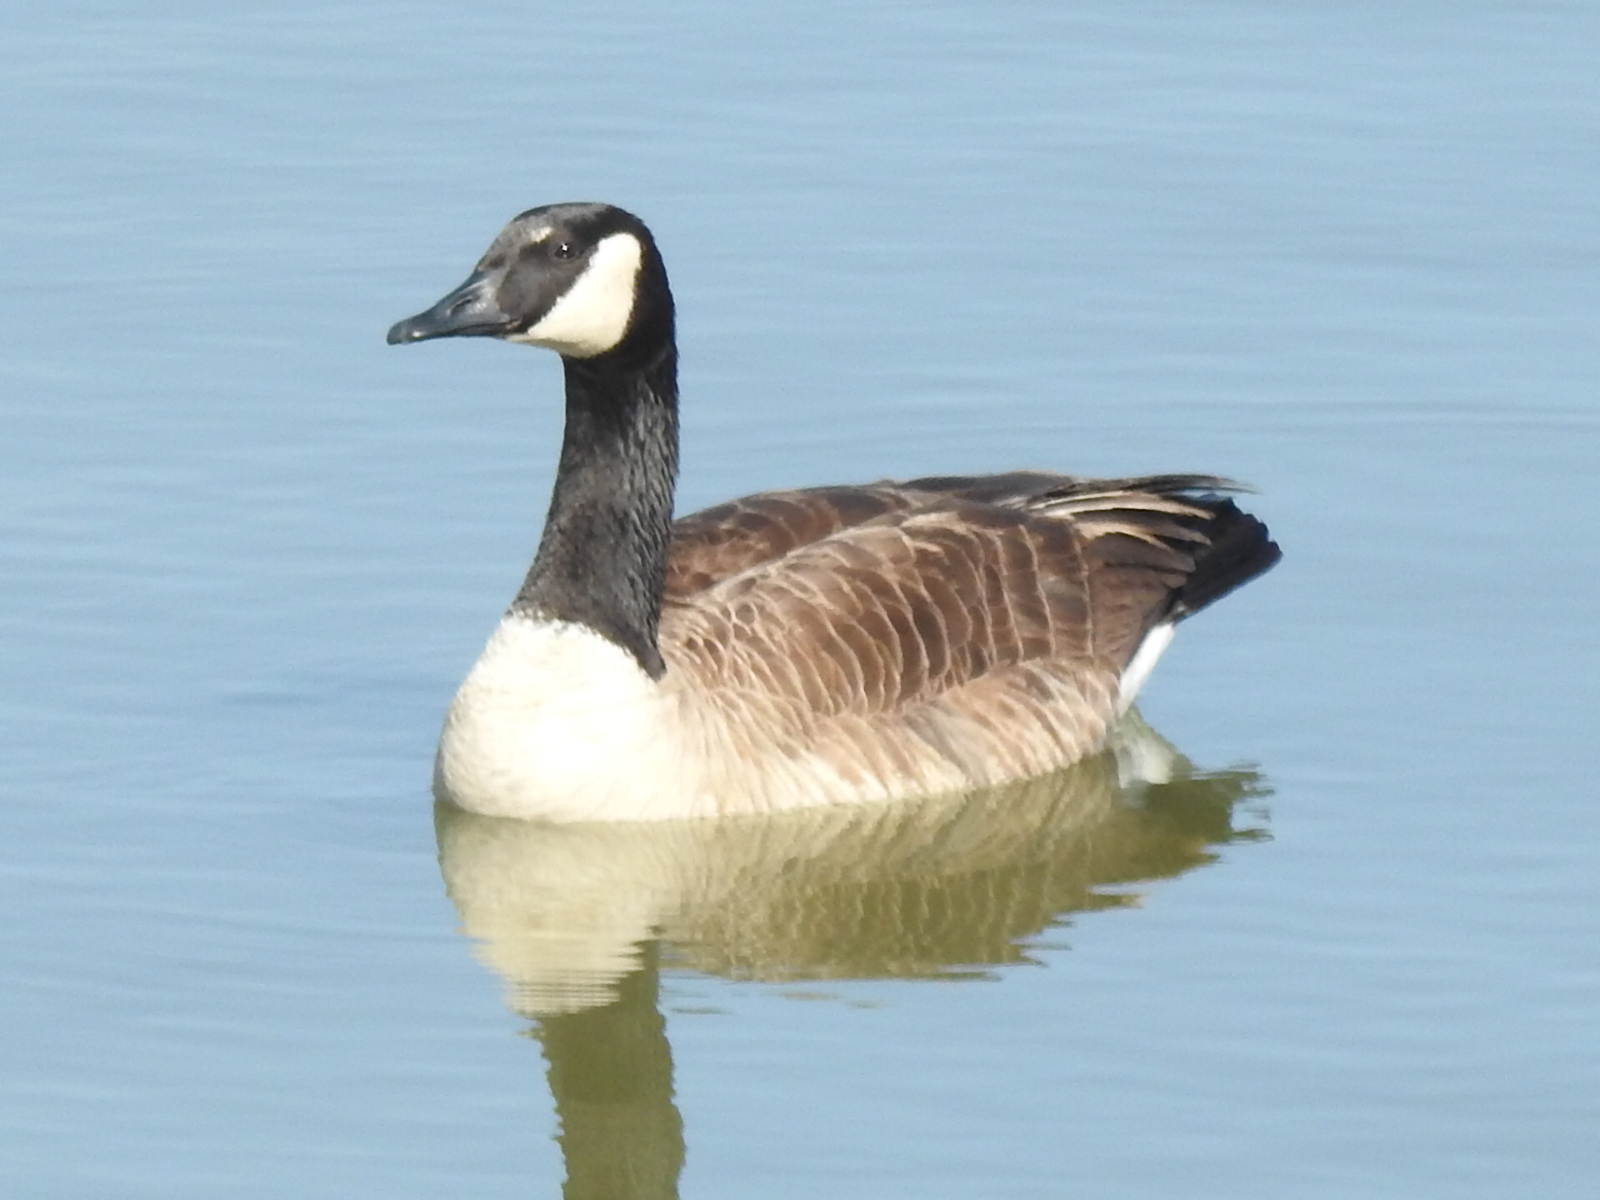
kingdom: Animalia
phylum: Chordata
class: Aves
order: Anseriformes
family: Anatidae
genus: Branta
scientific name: Branta canadensis
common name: Canada goose
